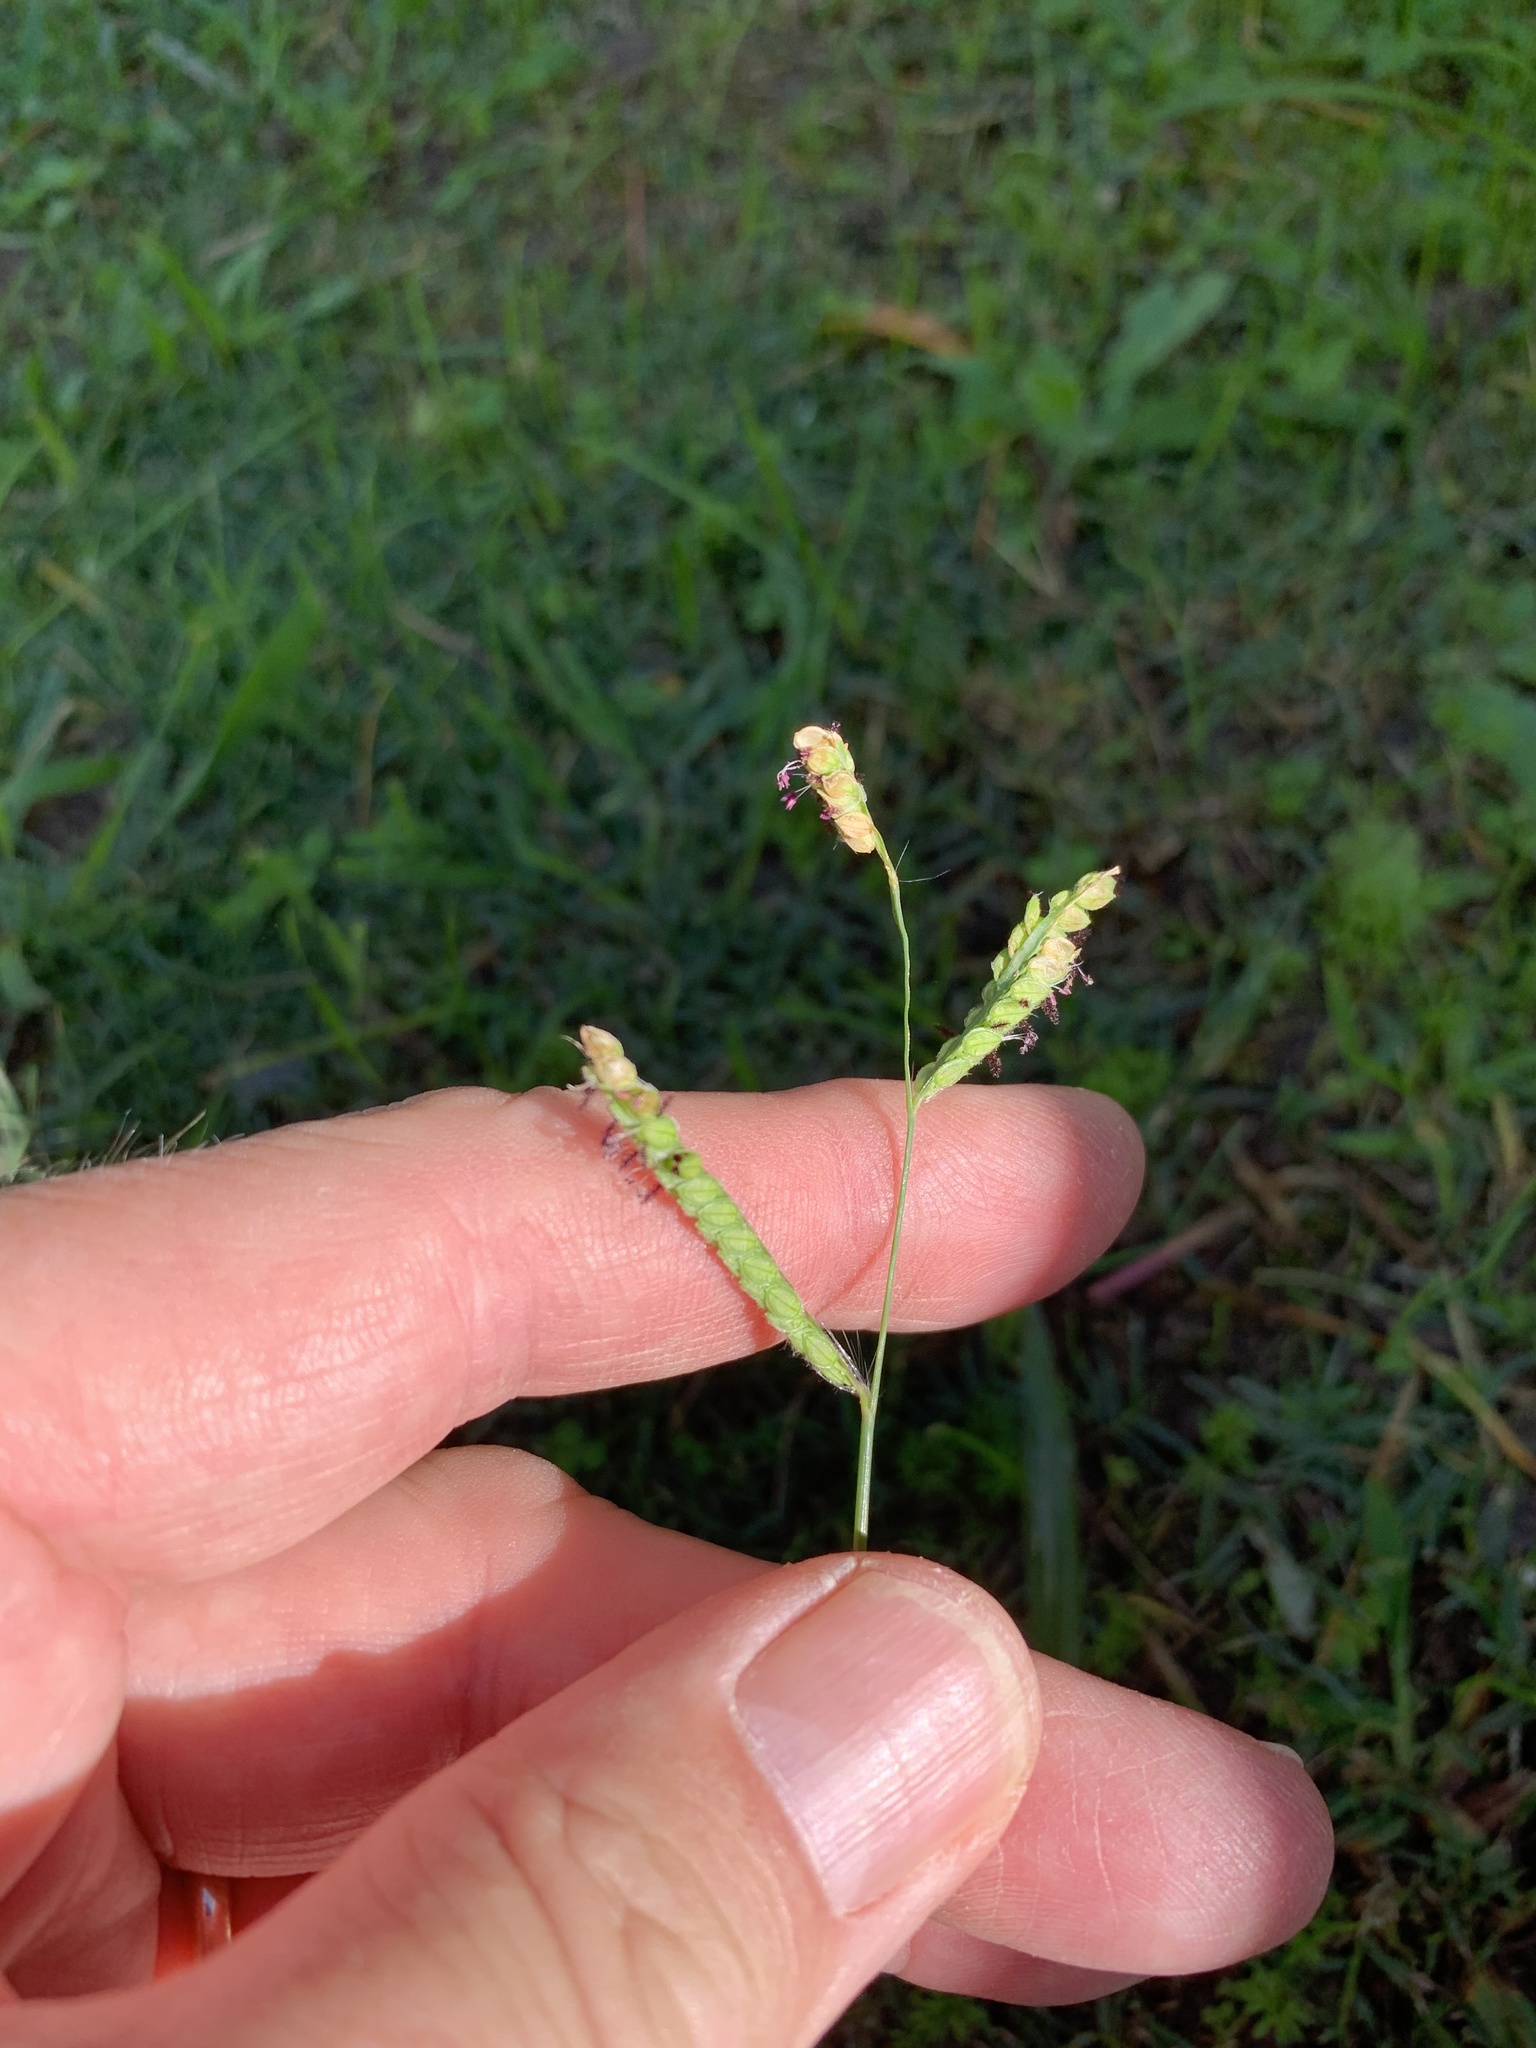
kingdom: Plantae
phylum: Tracheophyta
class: Liliopsida
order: Poales
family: Poaceae
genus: Paspalum
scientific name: Paspalum dilatatum
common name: Dallisgrass
